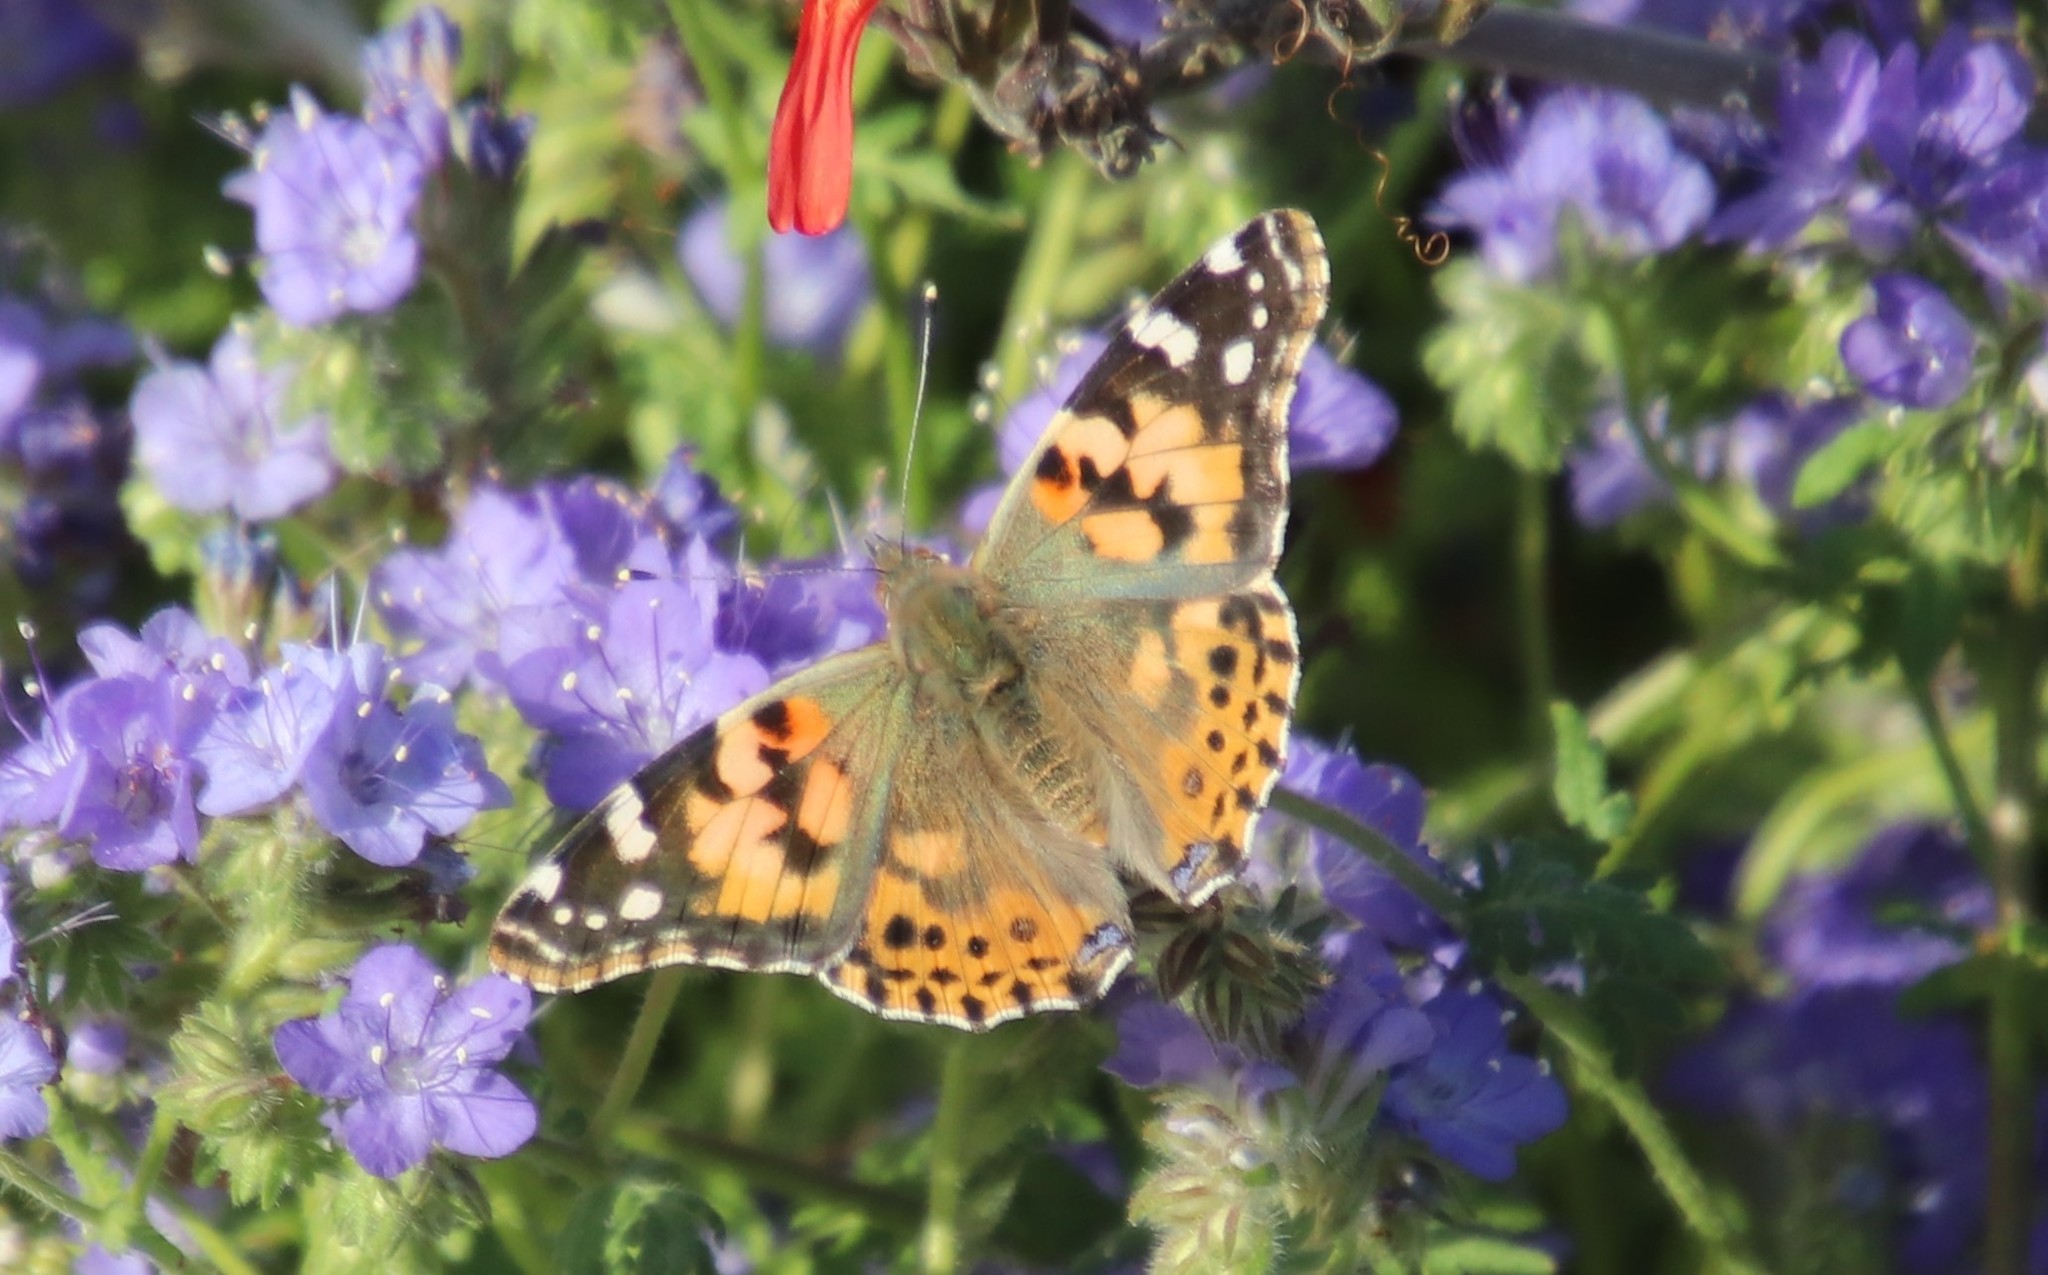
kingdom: Animalia
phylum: Arthropoda
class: Insecta
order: Lepidoptera
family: Nymphalidae
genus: Vanessa
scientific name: Vanessa cardui
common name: Painted lady
